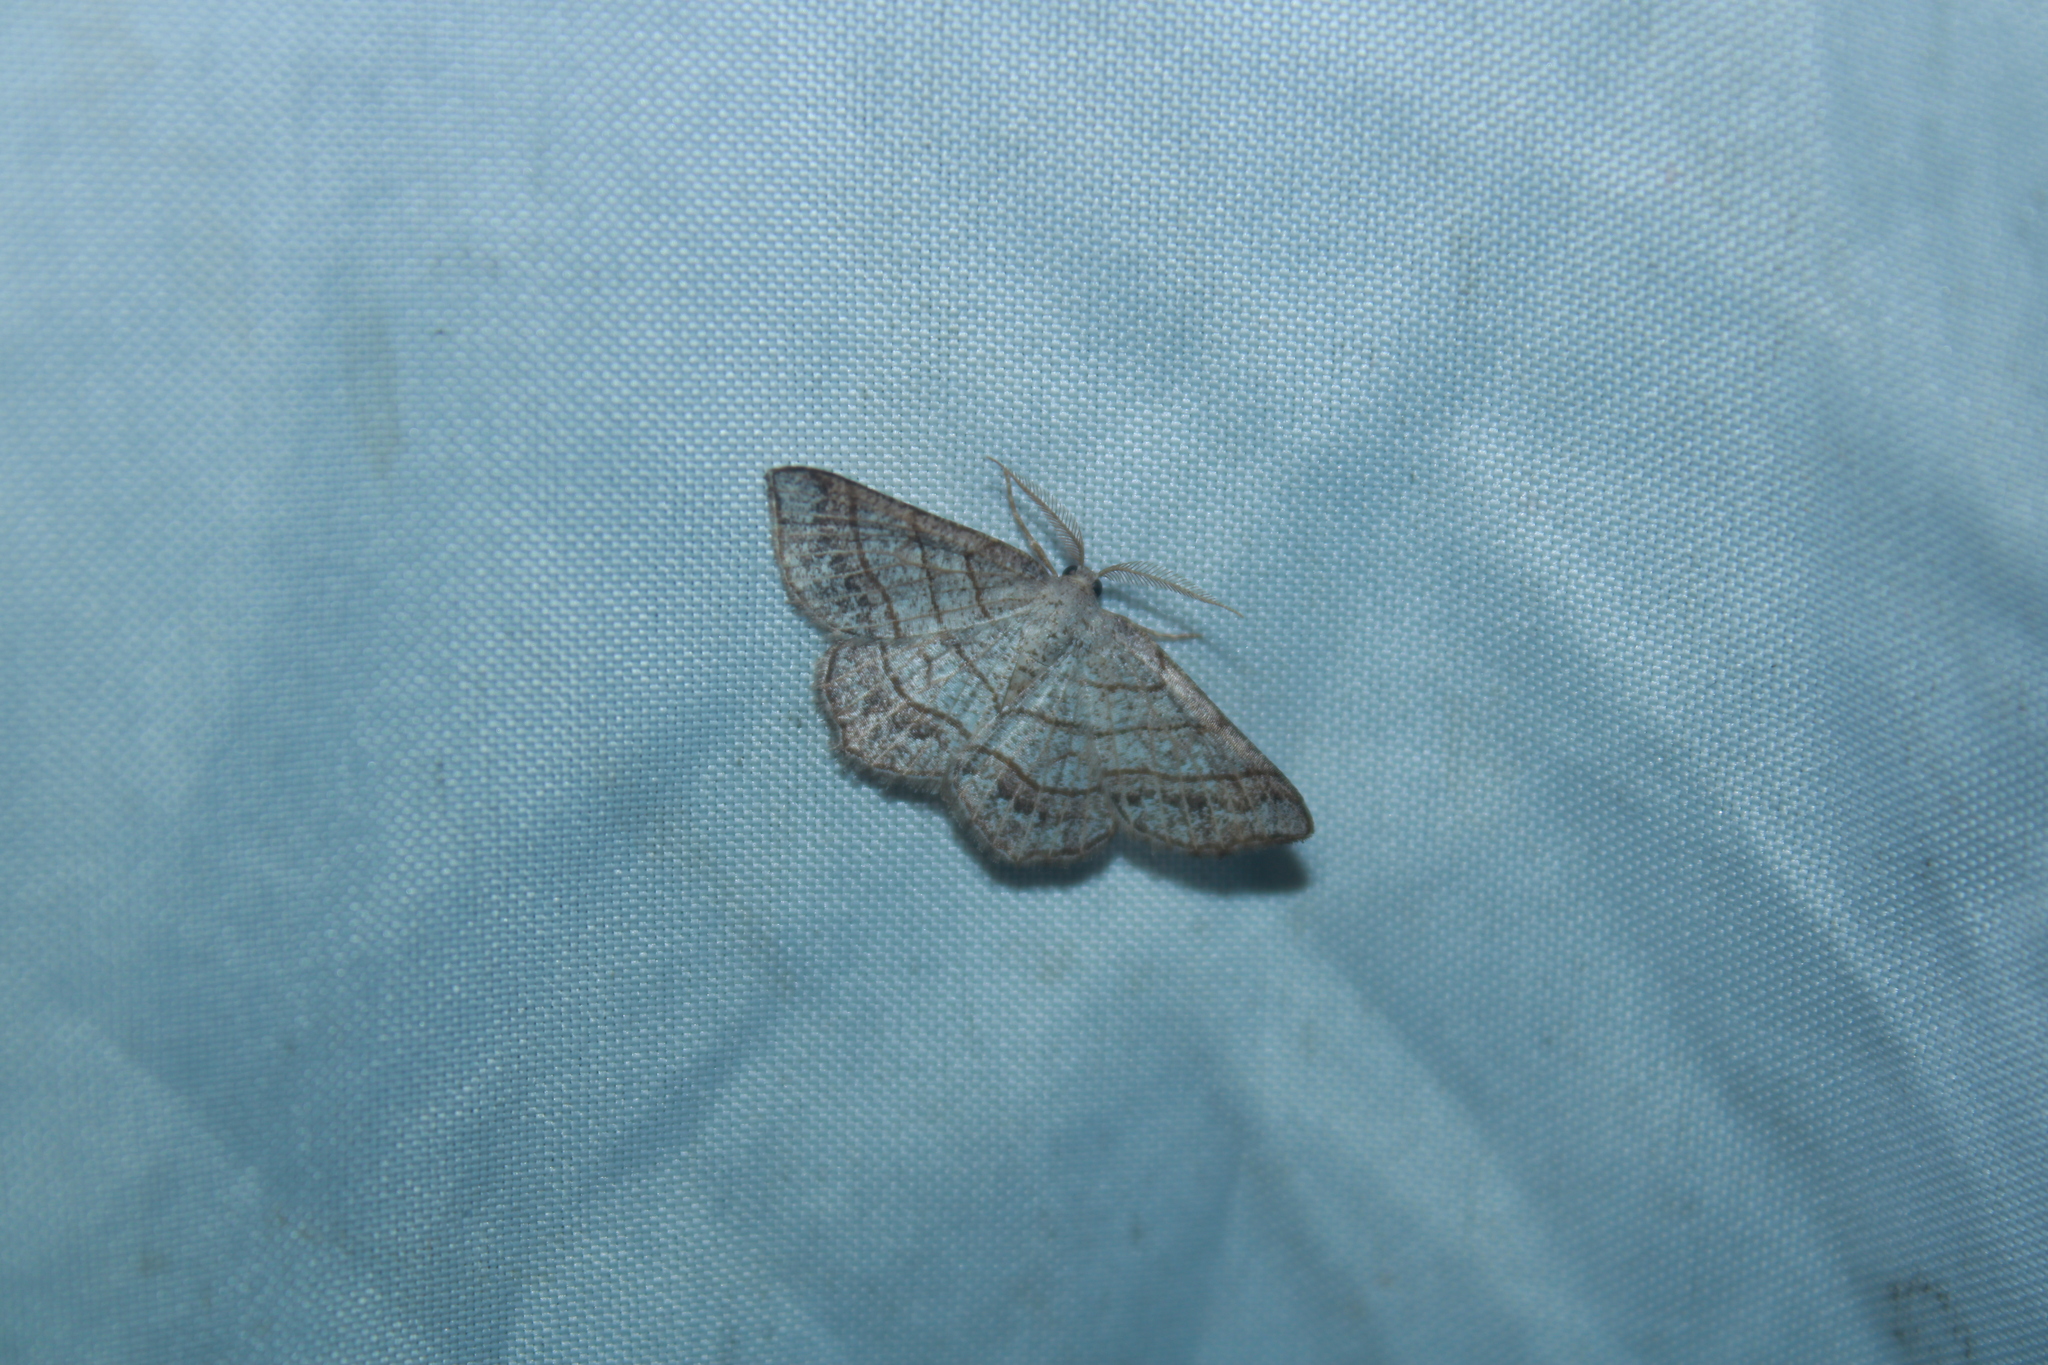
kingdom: Animalia
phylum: Arthropoda
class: Insecta
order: Lepidoptera
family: Geometridae
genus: Eumacaria
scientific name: Eumacaria madopata
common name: Brown-bordered geometer
